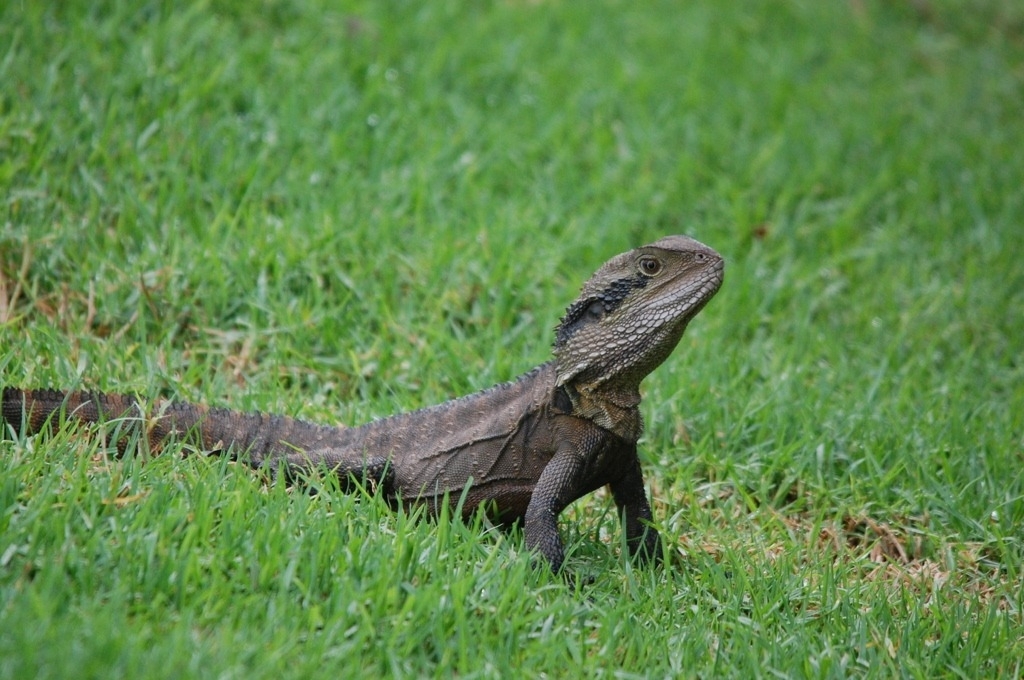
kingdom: Animalia
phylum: Chordata
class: Squamata
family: Agamidae
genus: Intellagama
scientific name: Intellagama lesueurii
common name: Eastern water dragon
